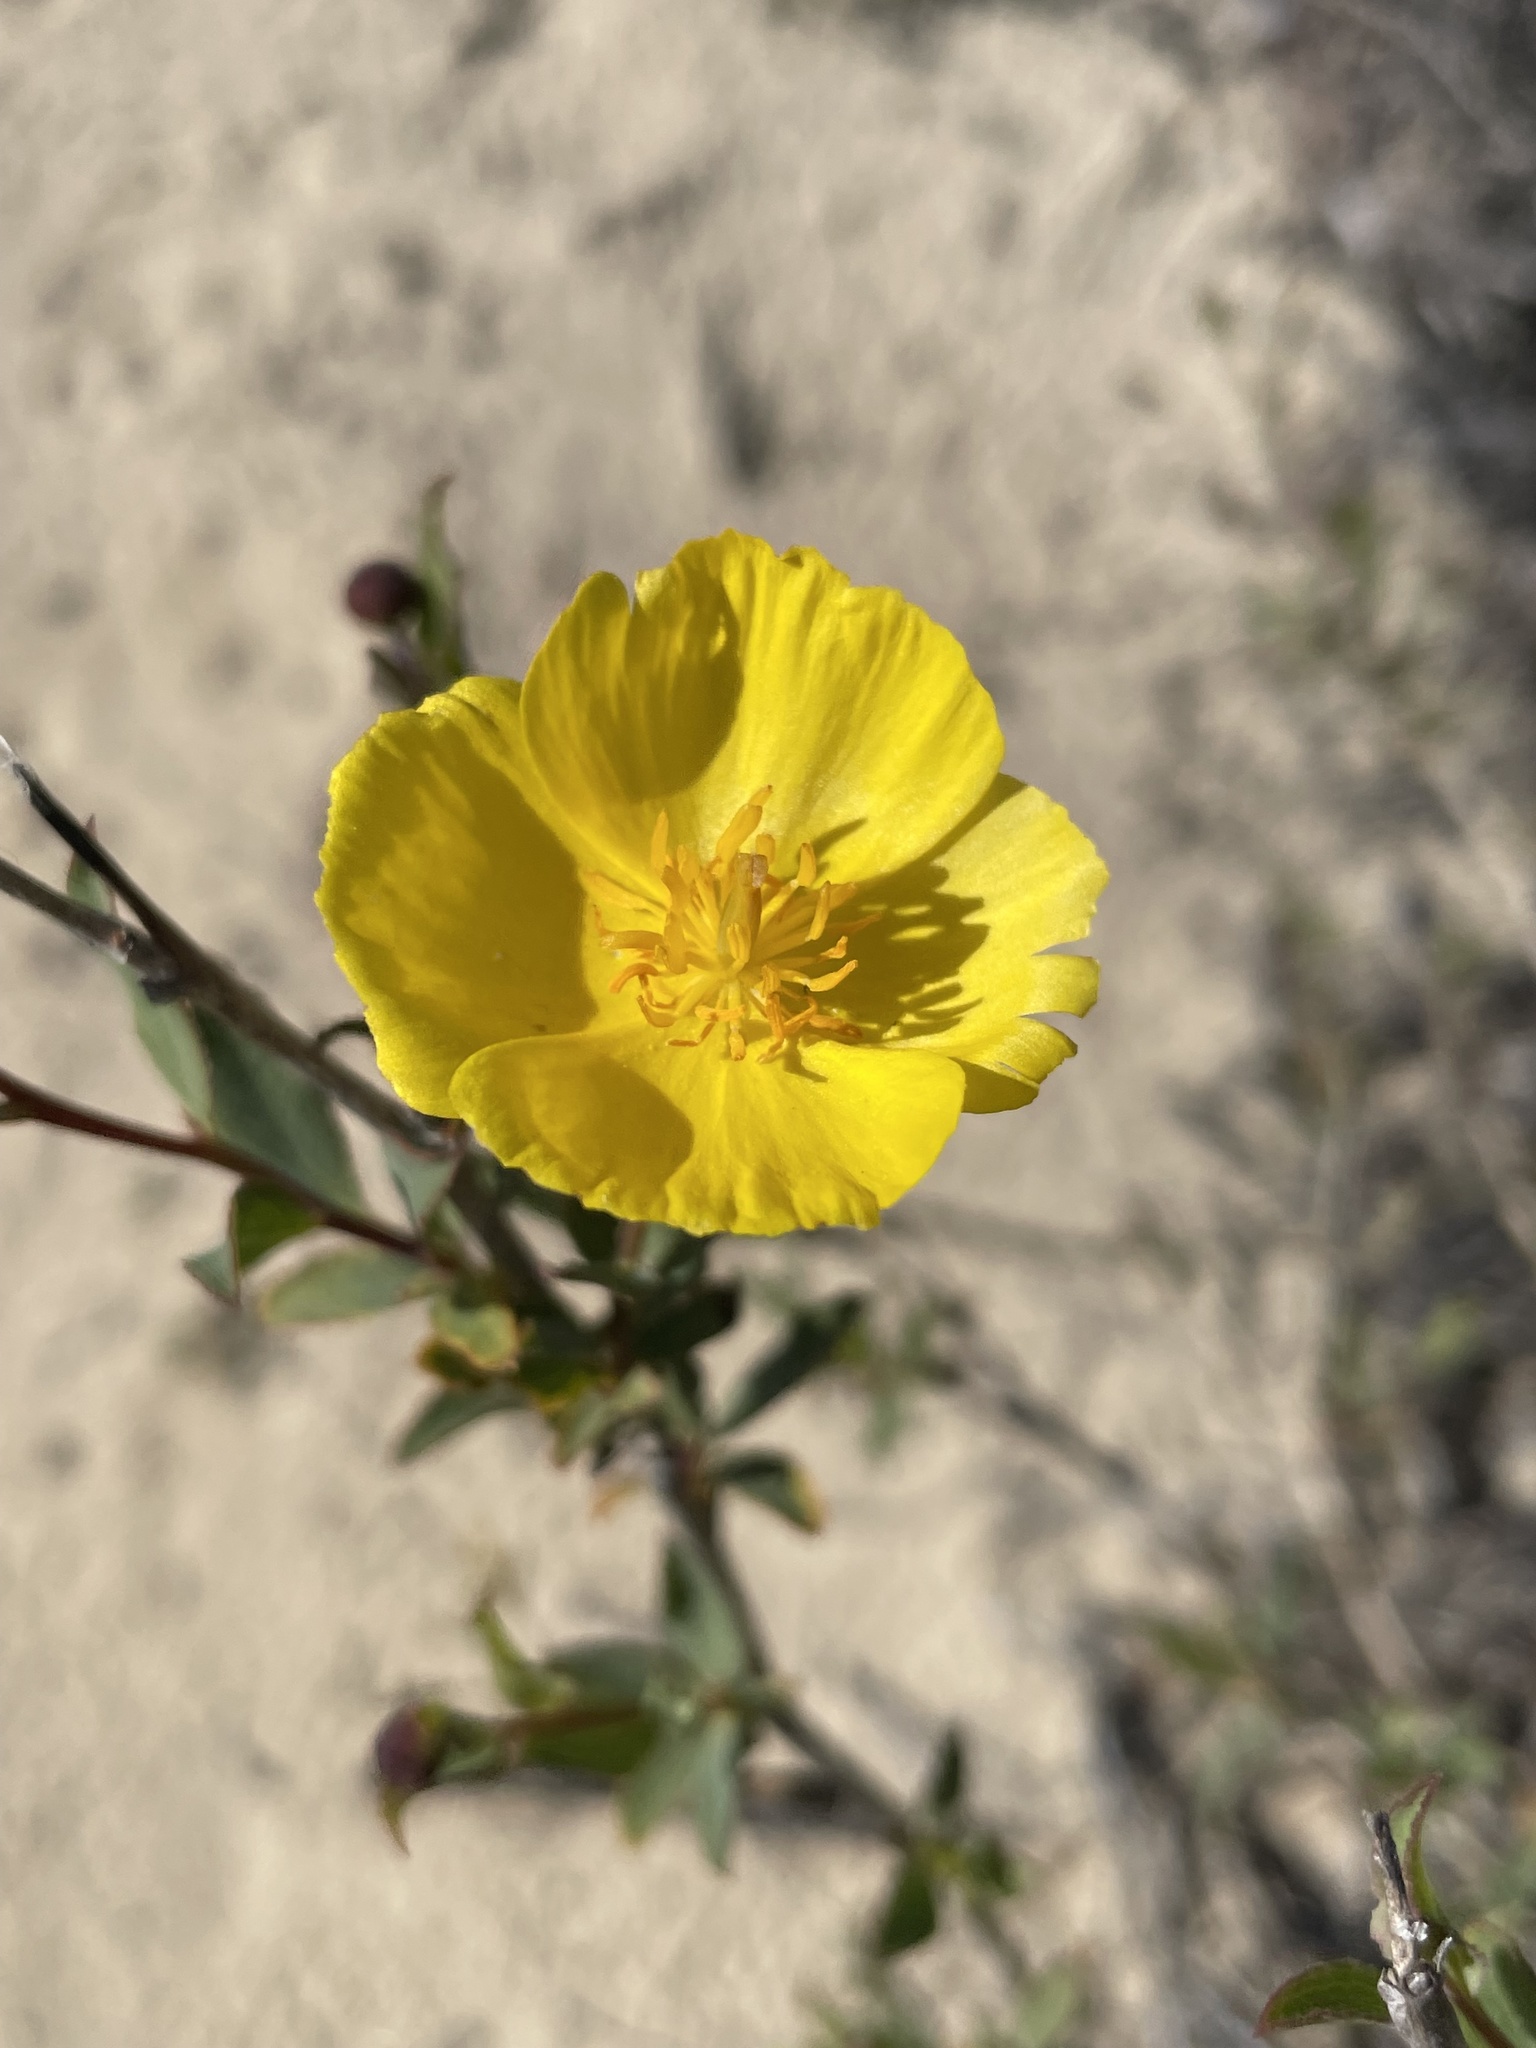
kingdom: Plantae
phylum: Tracheophyta
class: Magnoliopsida
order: Ranunculales
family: Papaveraceae
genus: Dendromecon
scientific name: Dendromecon rigida
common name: Tree poppy
